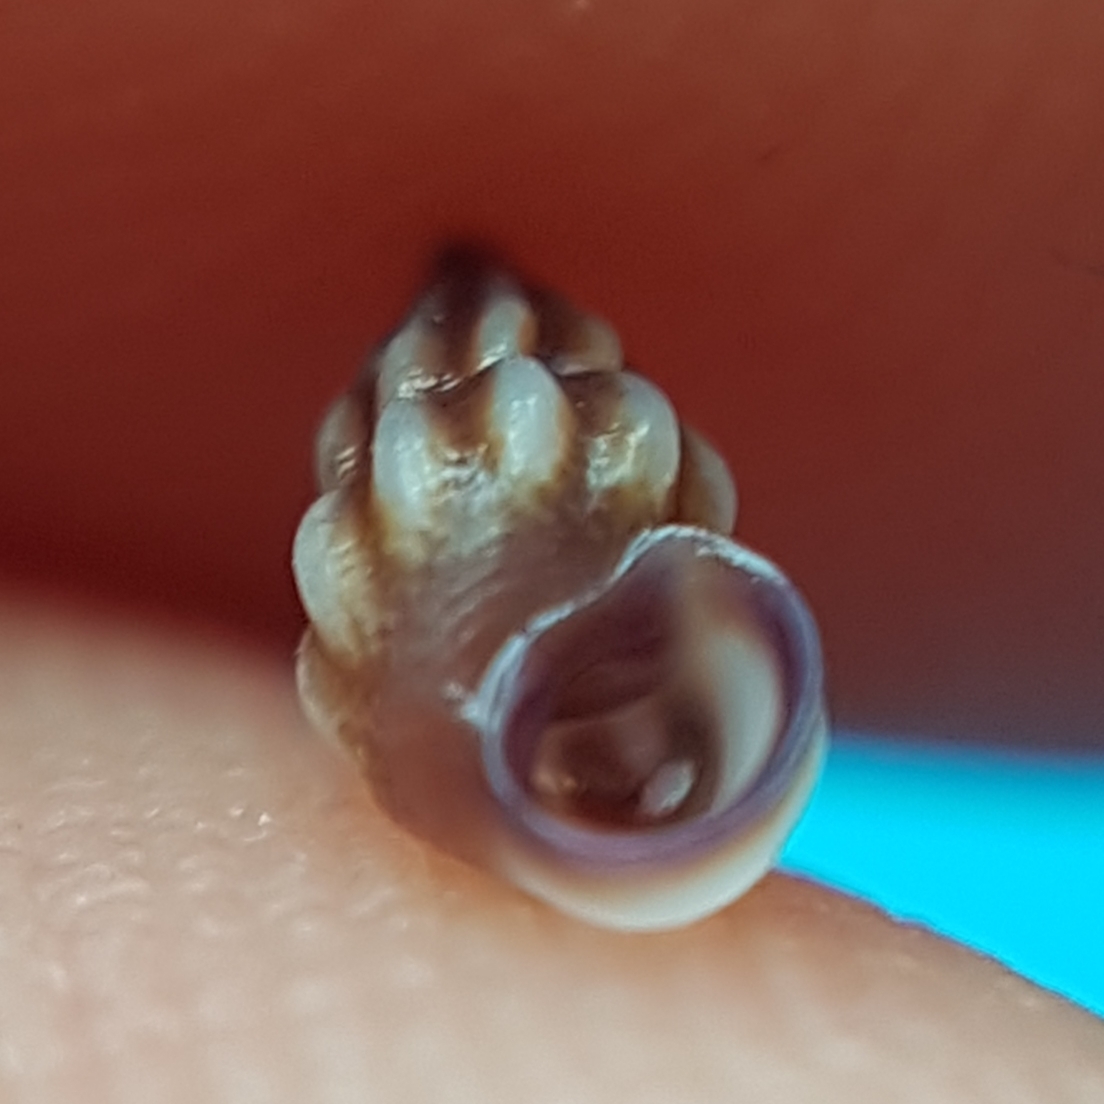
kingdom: Animalia
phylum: Mollusca
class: Gastropoda
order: Littorinimorpha
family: Rissoidae
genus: Rissoa
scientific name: Rissoa guerinii
